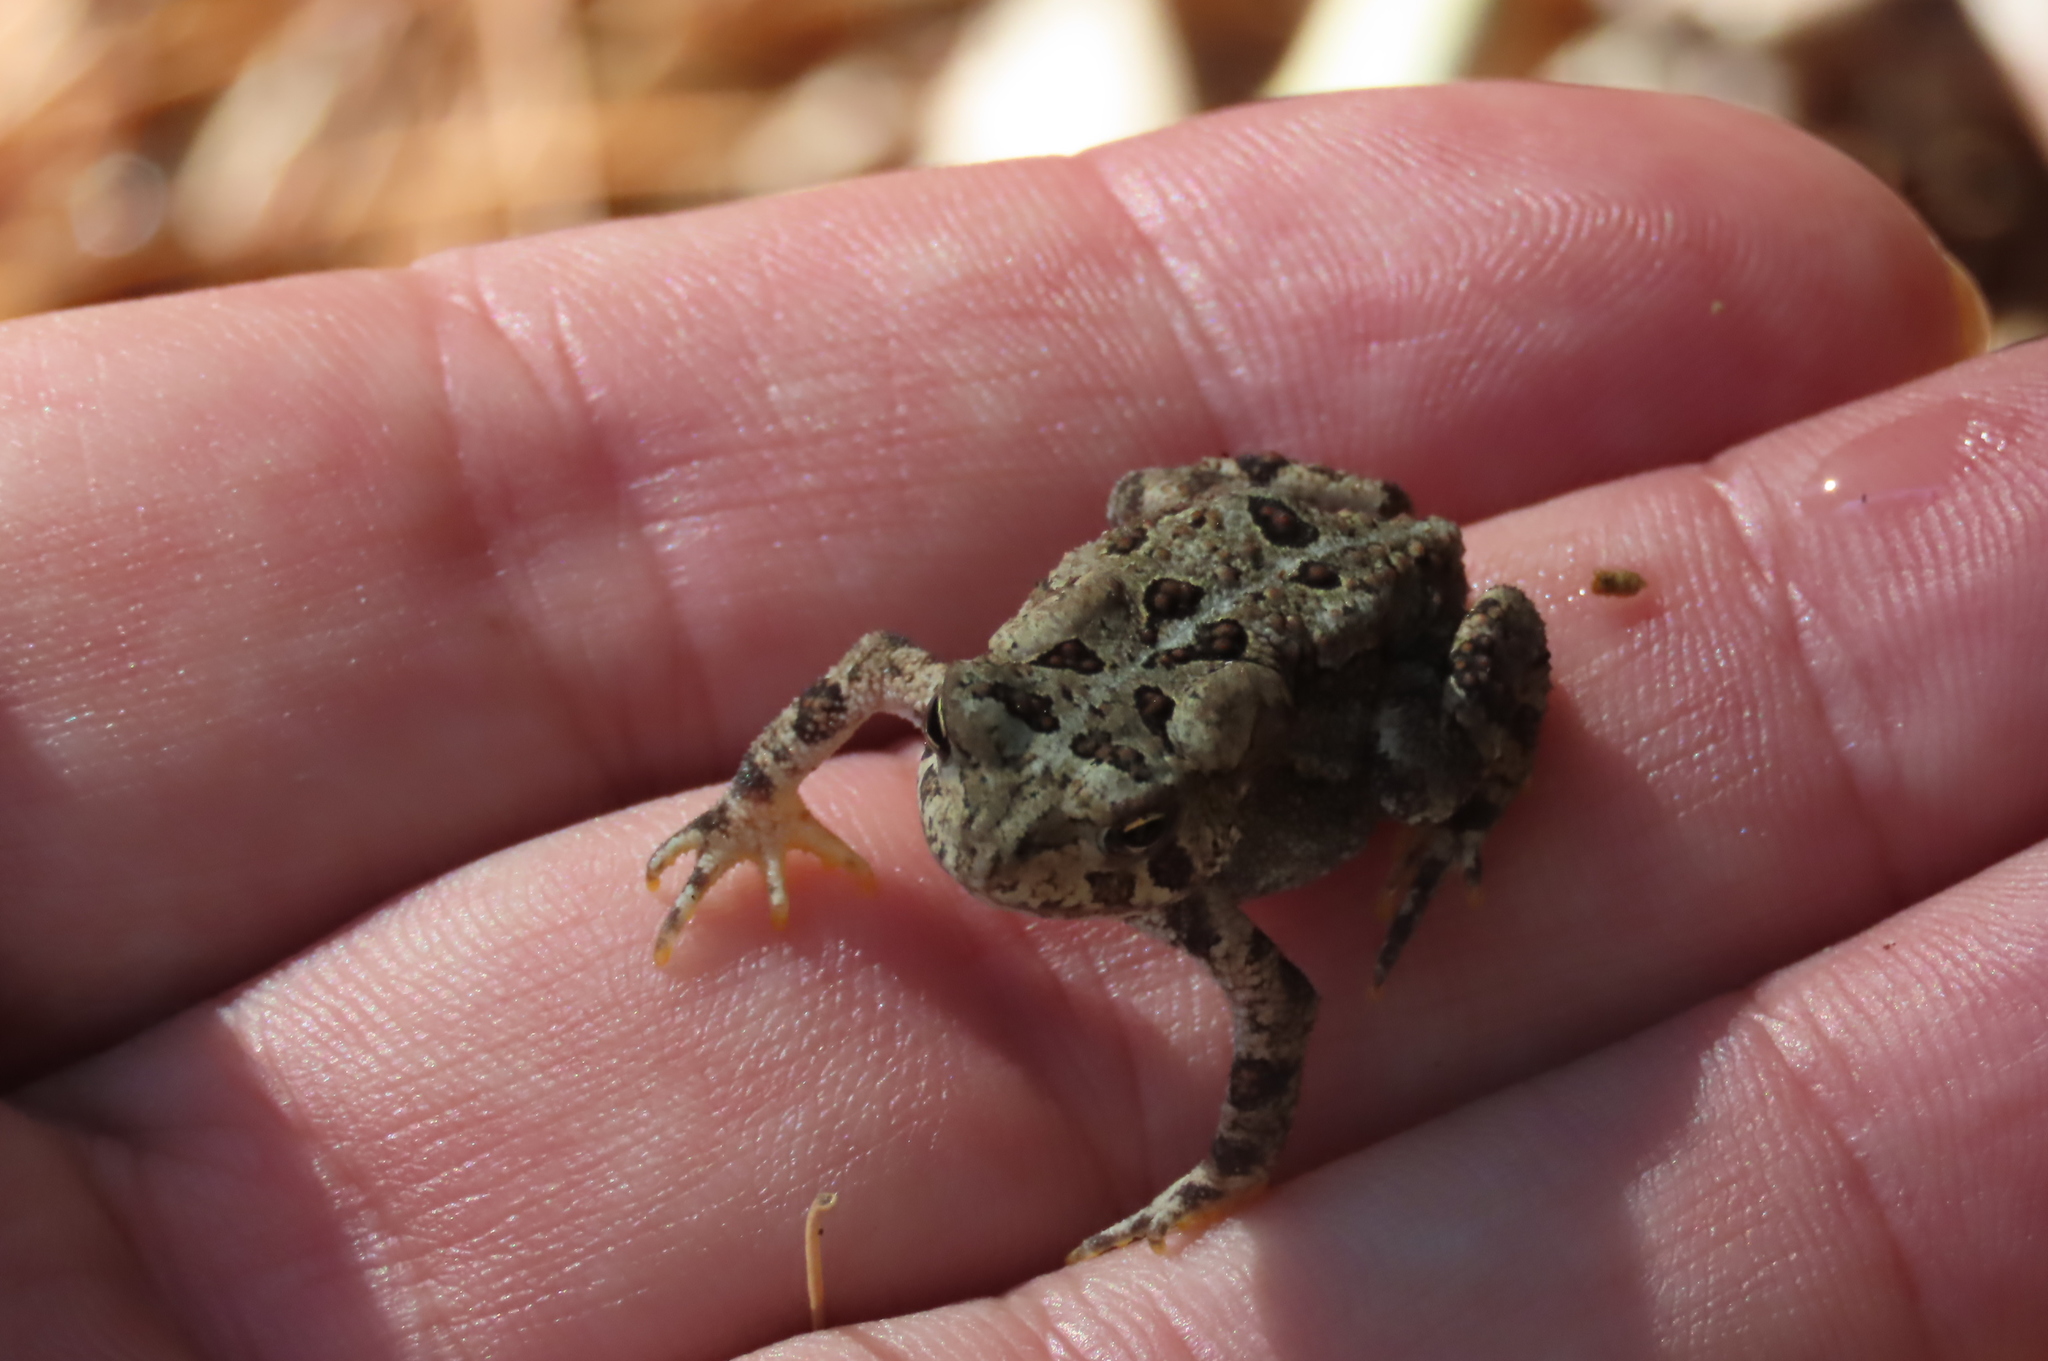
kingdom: Animalia
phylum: Chordata
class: Amphibia
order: Anura
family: Bufonidae
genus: Anaxyrus
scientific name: Anaxyrus americanus
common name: American toad
